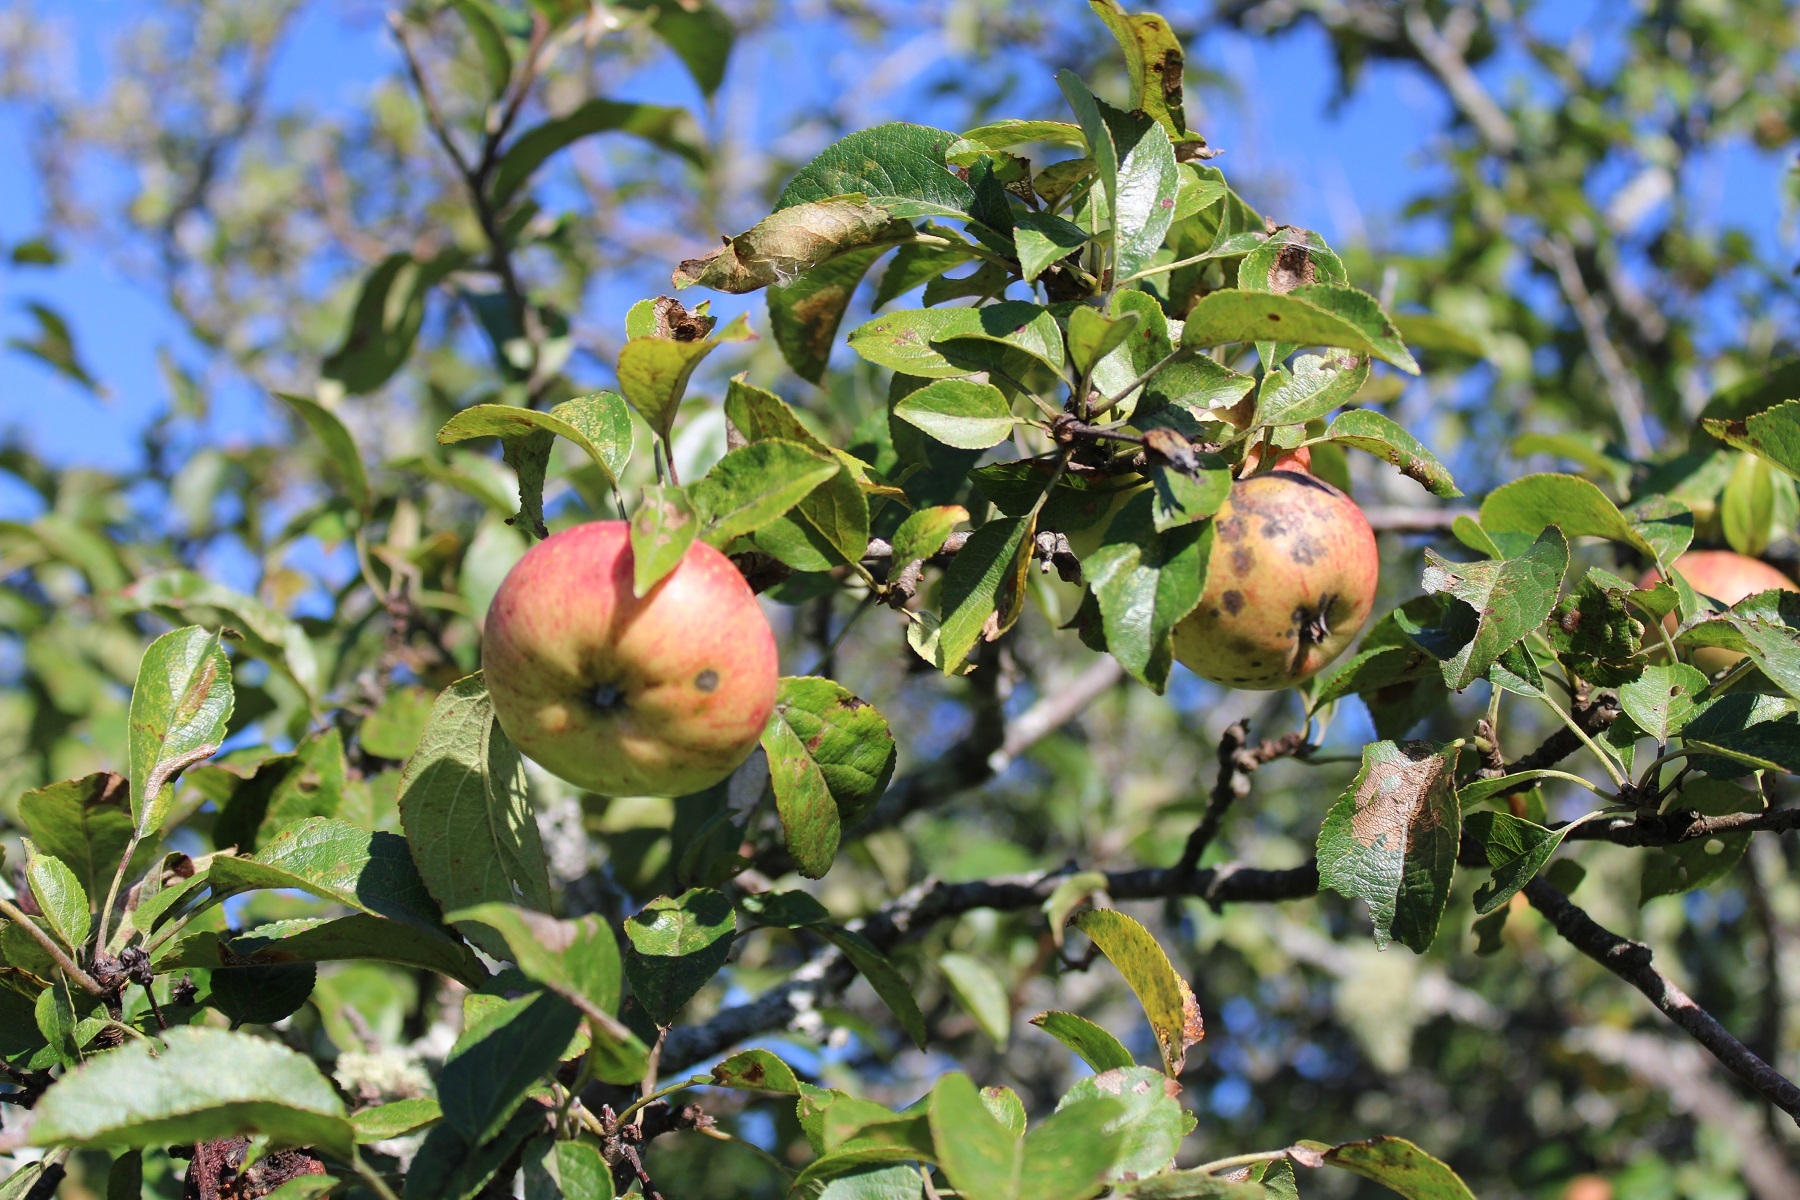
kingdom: Plantae
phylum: Tracheophyta
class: Magnoliopsida
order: Rosales
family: Rosaceae
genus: Malus
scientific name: Malus domestica
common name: Apple
